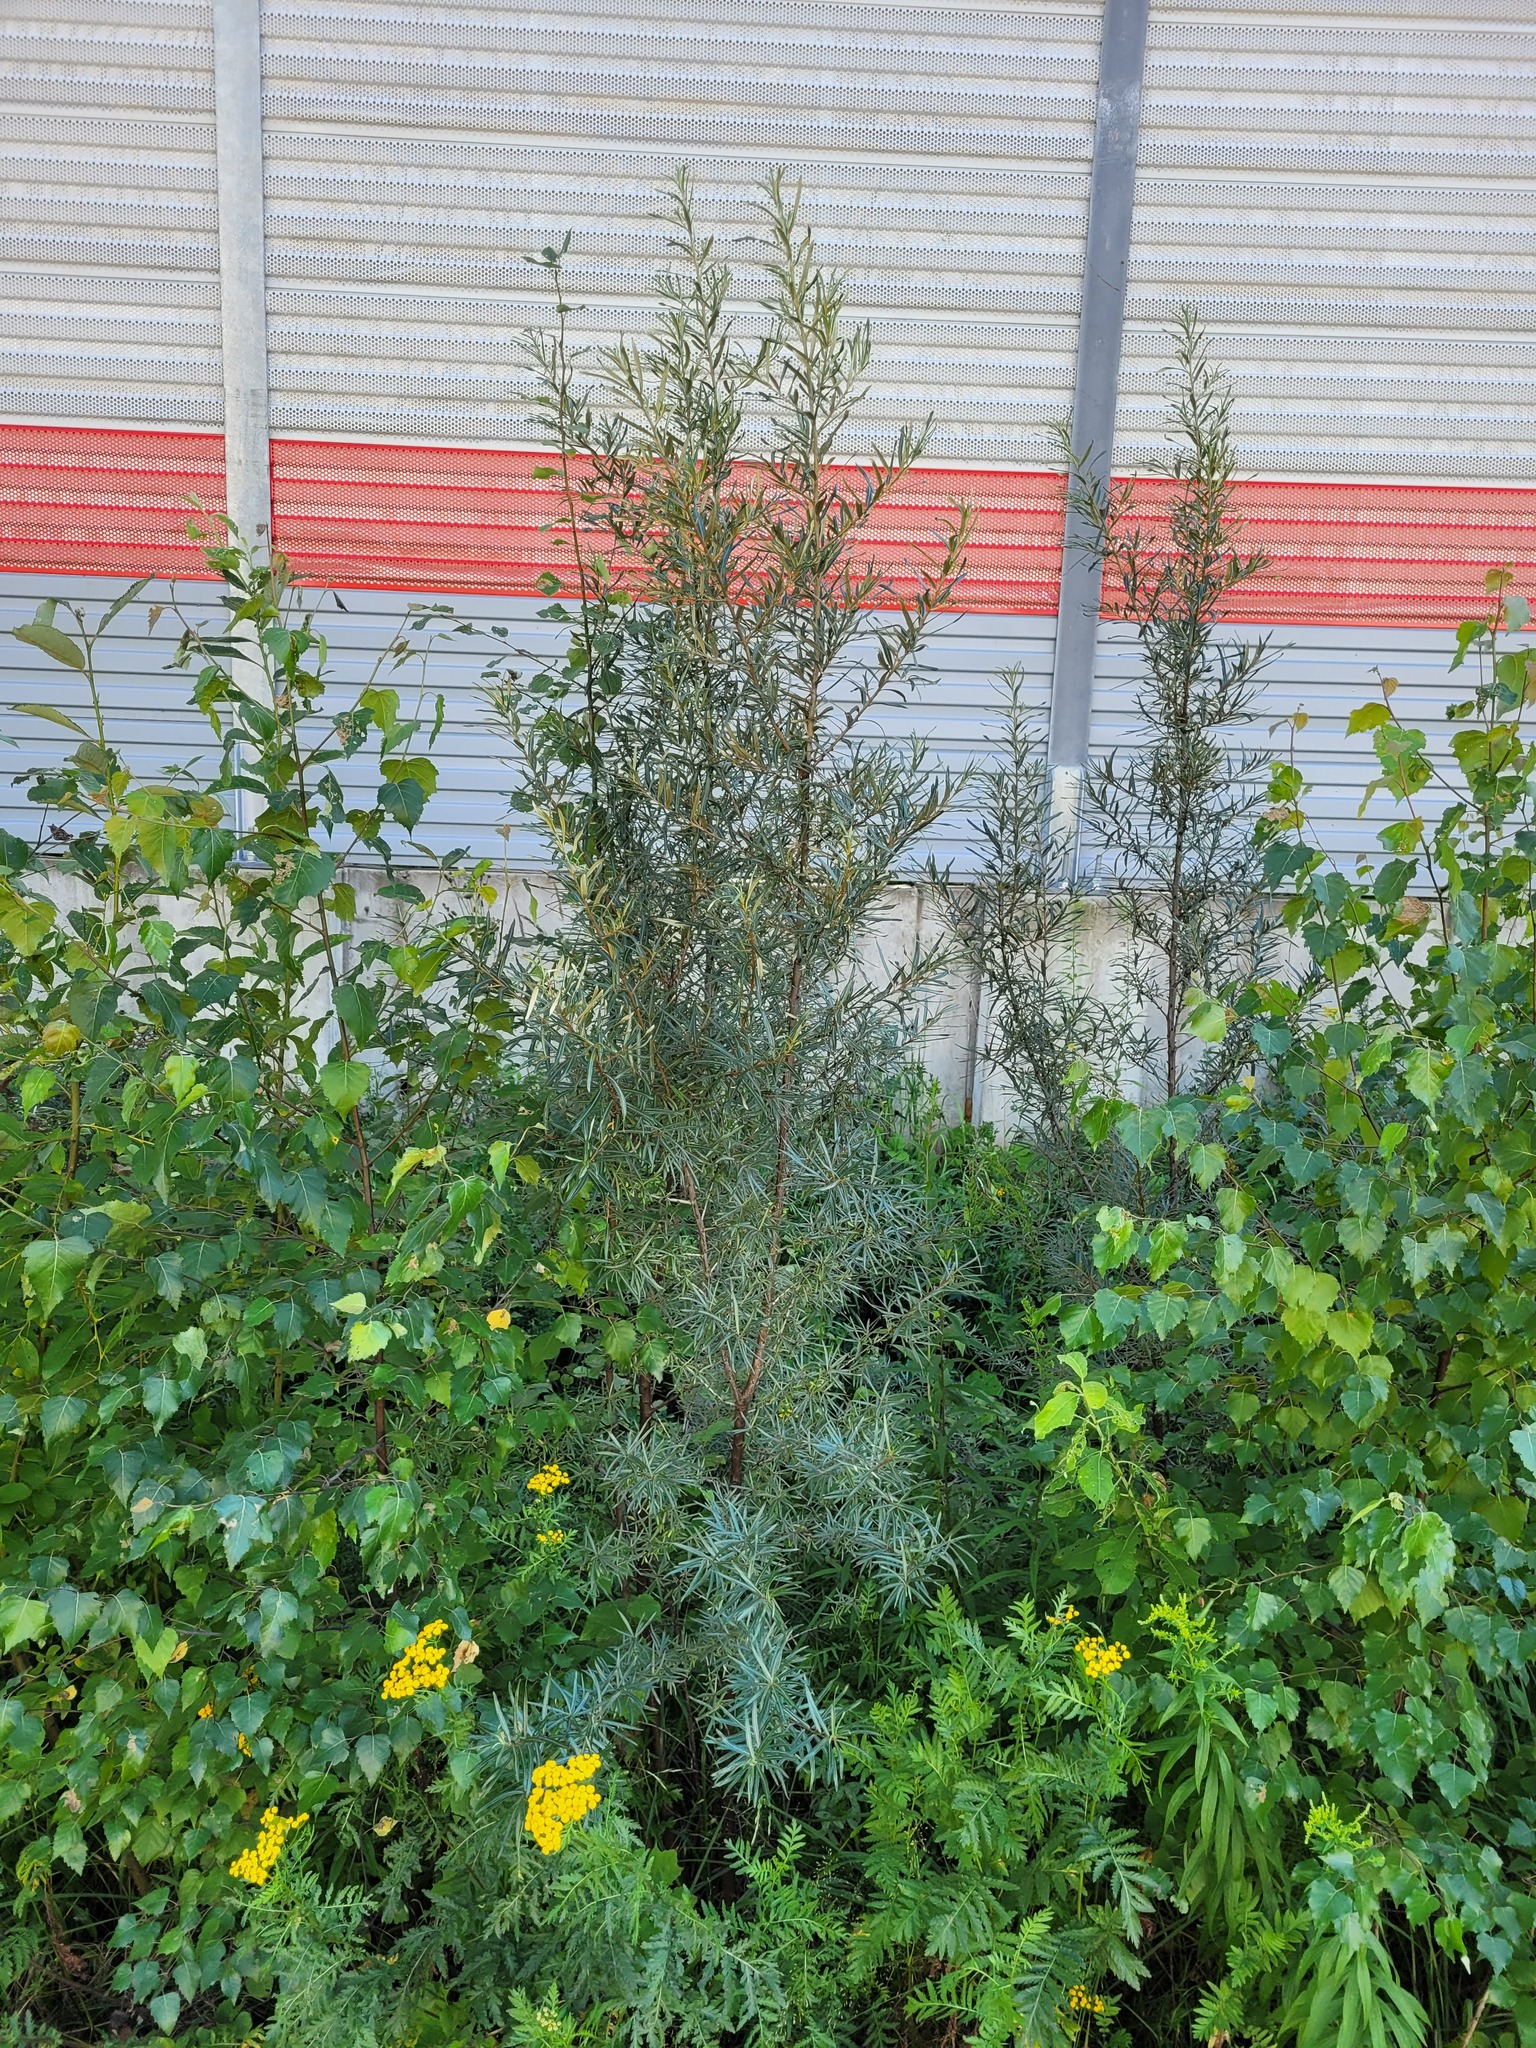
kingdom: Plantae
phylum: Tracheophyta
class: Magnoliopsida
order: Rosales
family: Elaeagnaceae
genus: Hippophae
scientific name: Hippophae rhamnoides
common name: Sea-buckthorn
